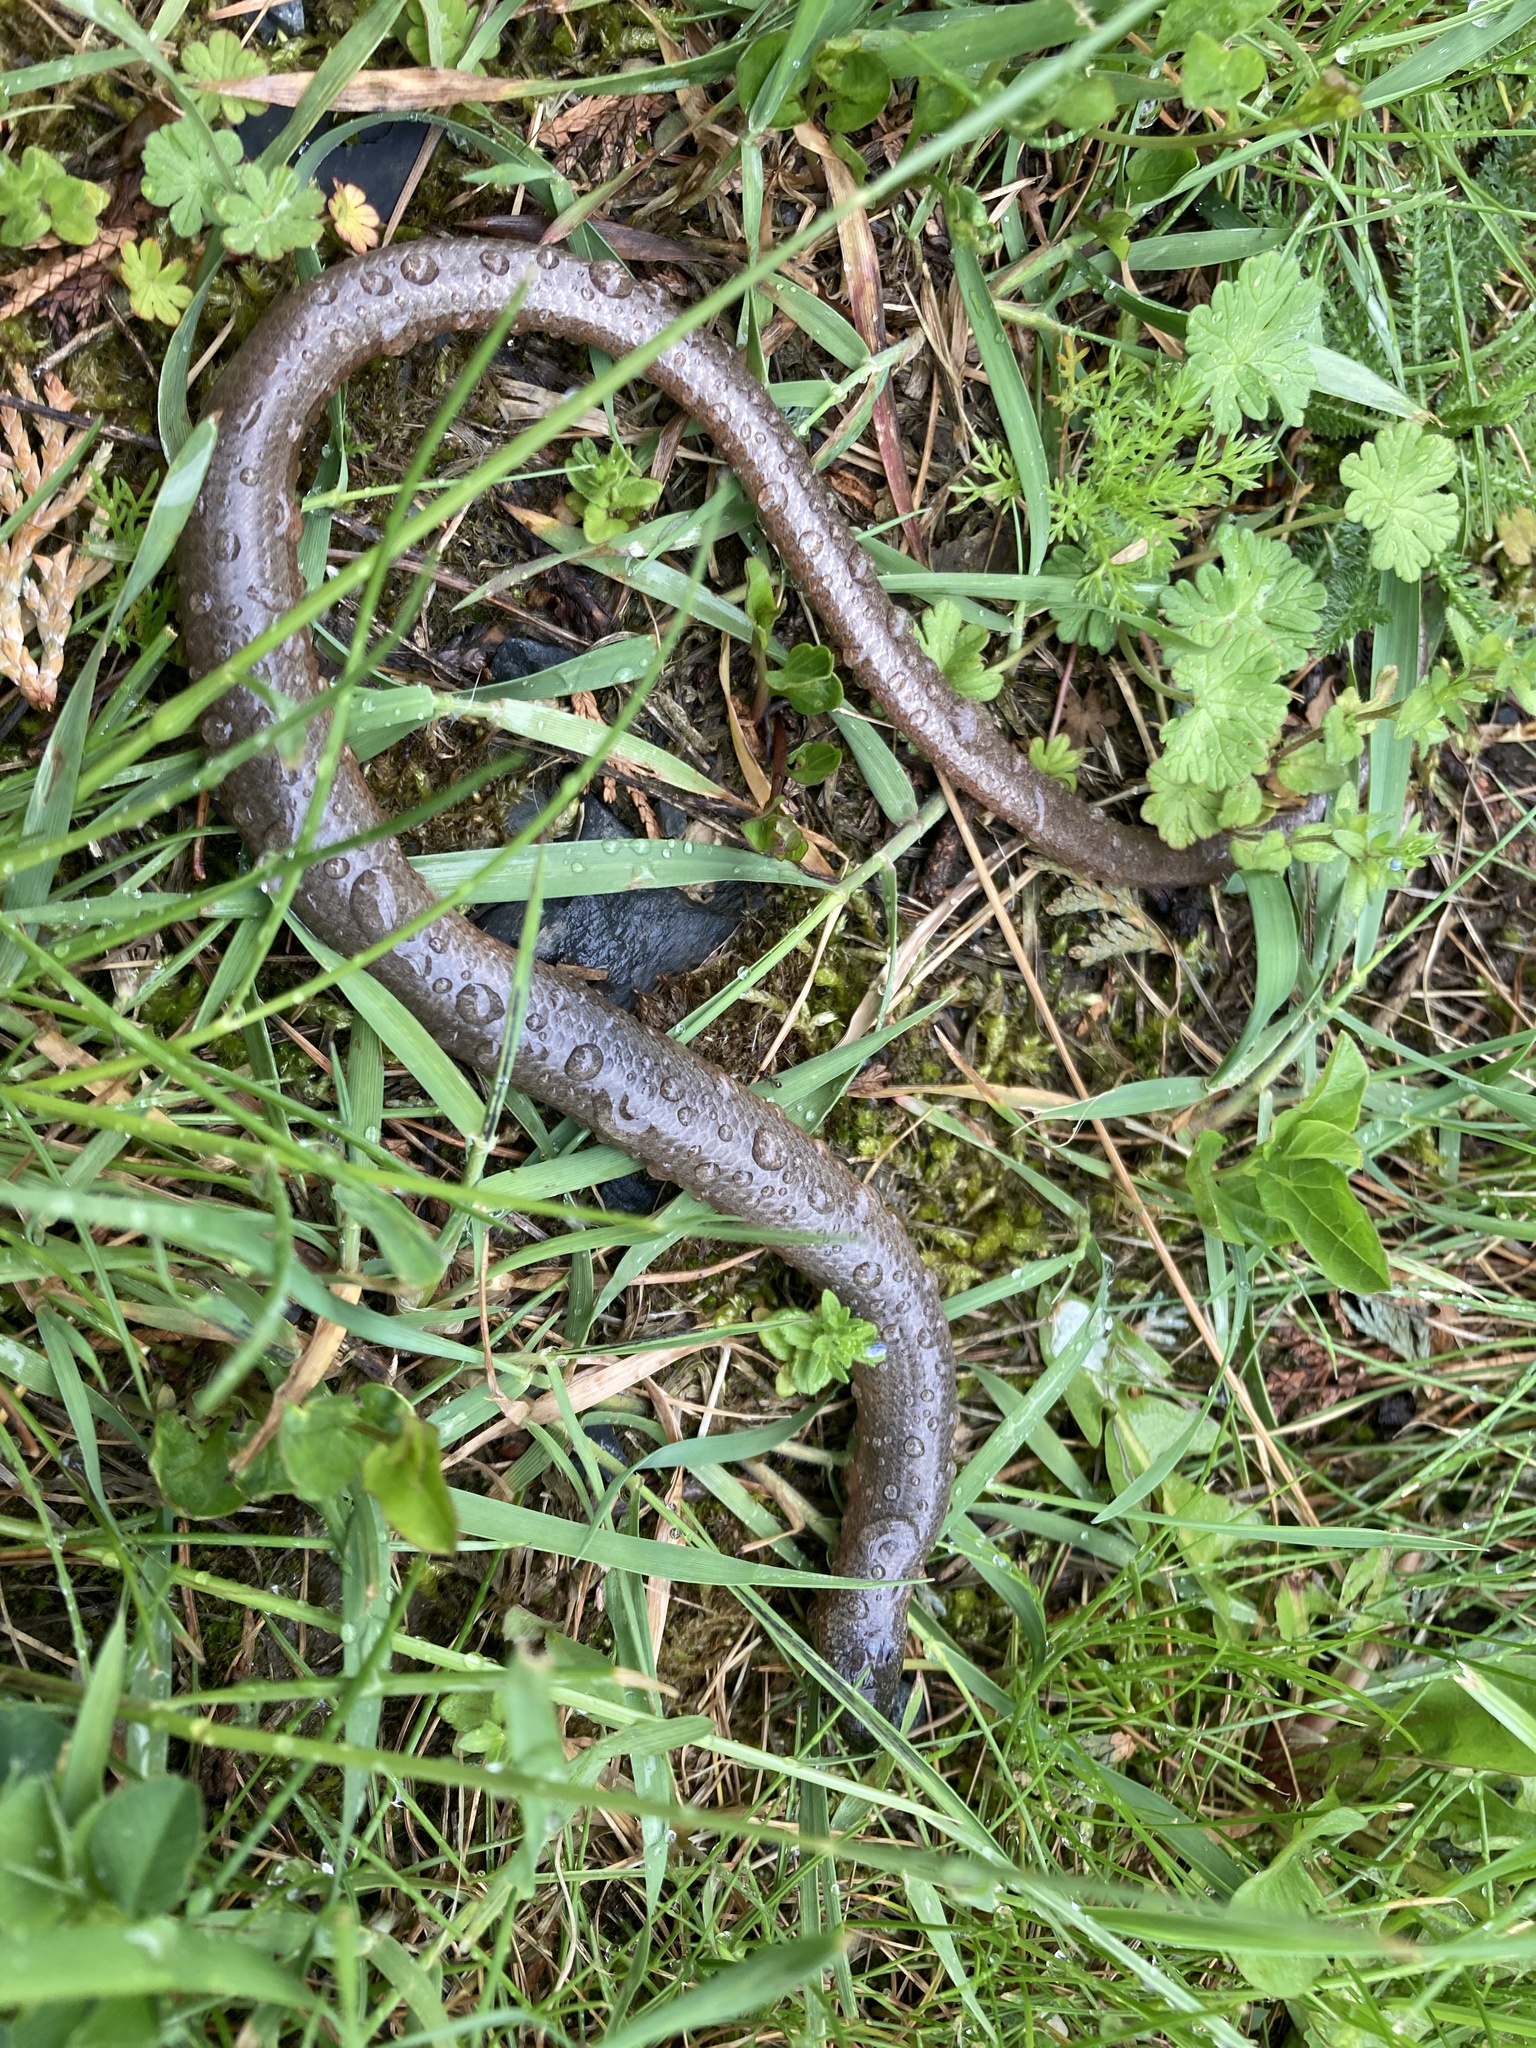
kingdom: Animalia
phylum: Chordata
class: Squamata
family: Anguidae
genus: Anguis
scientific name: Anguis fragilis
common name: Slow worm
